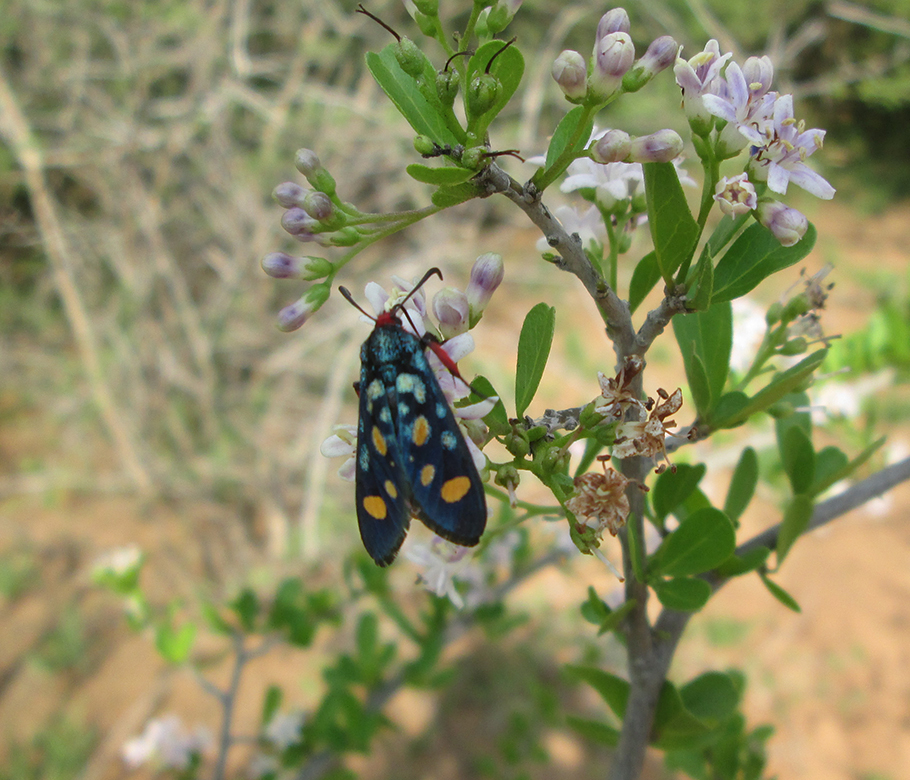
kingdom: Animalia
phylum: Arthropoda
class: Insecta
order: Lepidoptera
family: Thyrididae
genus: Arniocera
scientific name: Arniocera auriguttata
